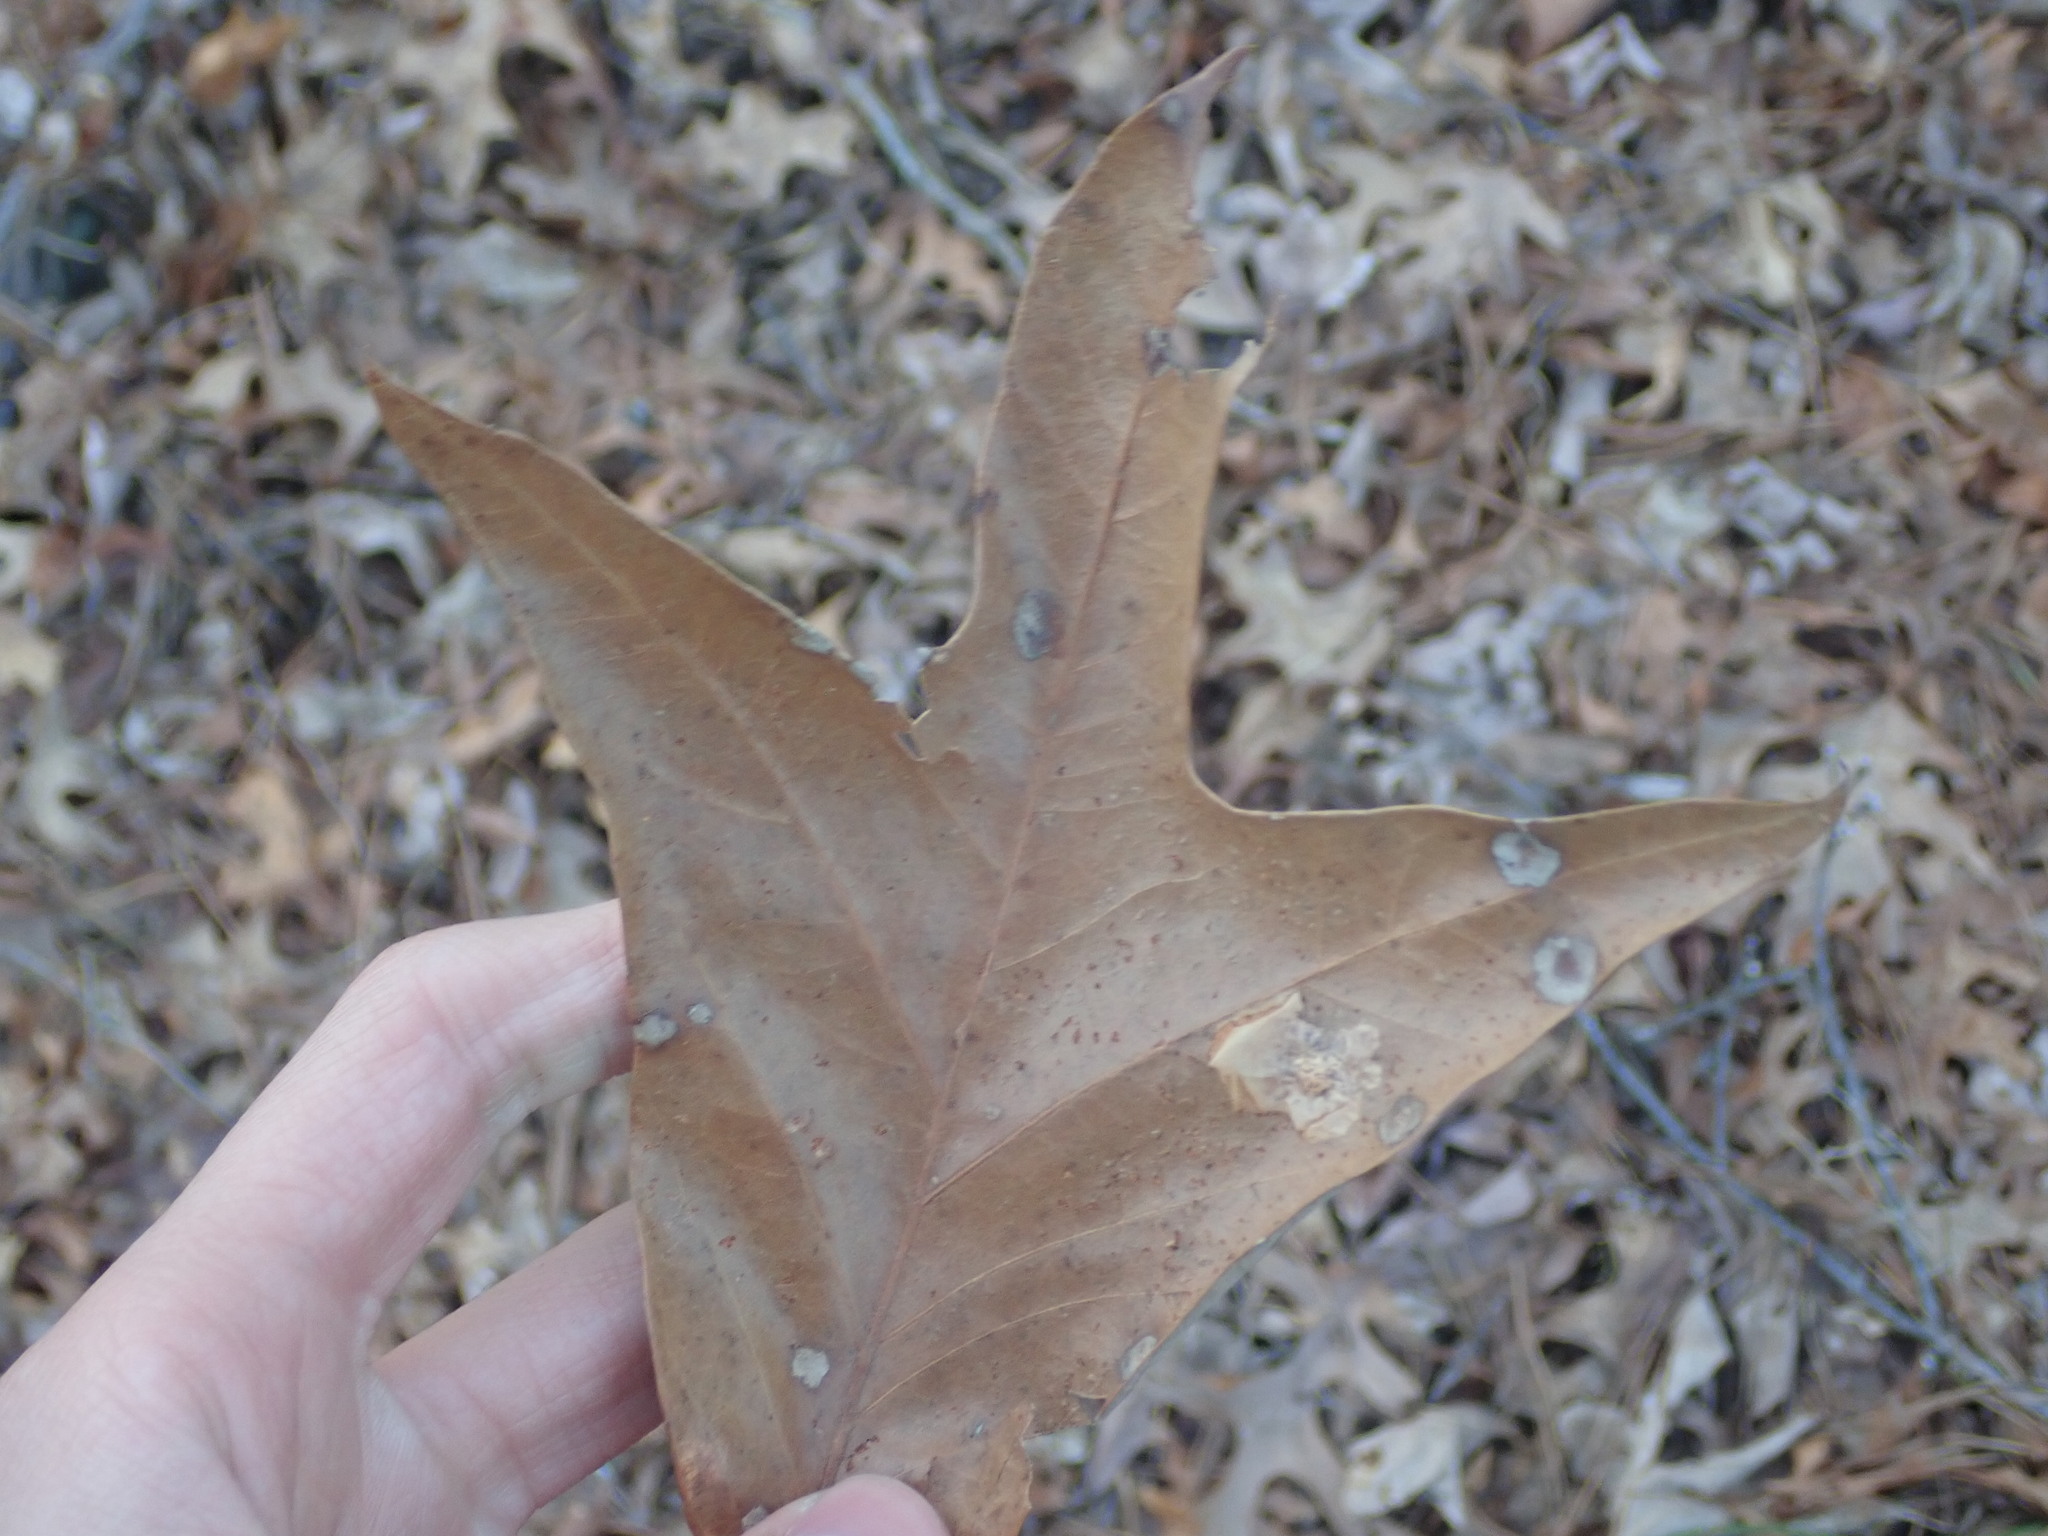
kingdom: Plantae
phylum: Tracheophyta
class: Magnoliopsida
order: Fagales
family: Fagaceae
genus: Quercus
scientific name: Quercus falcata
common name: Southern red oak
